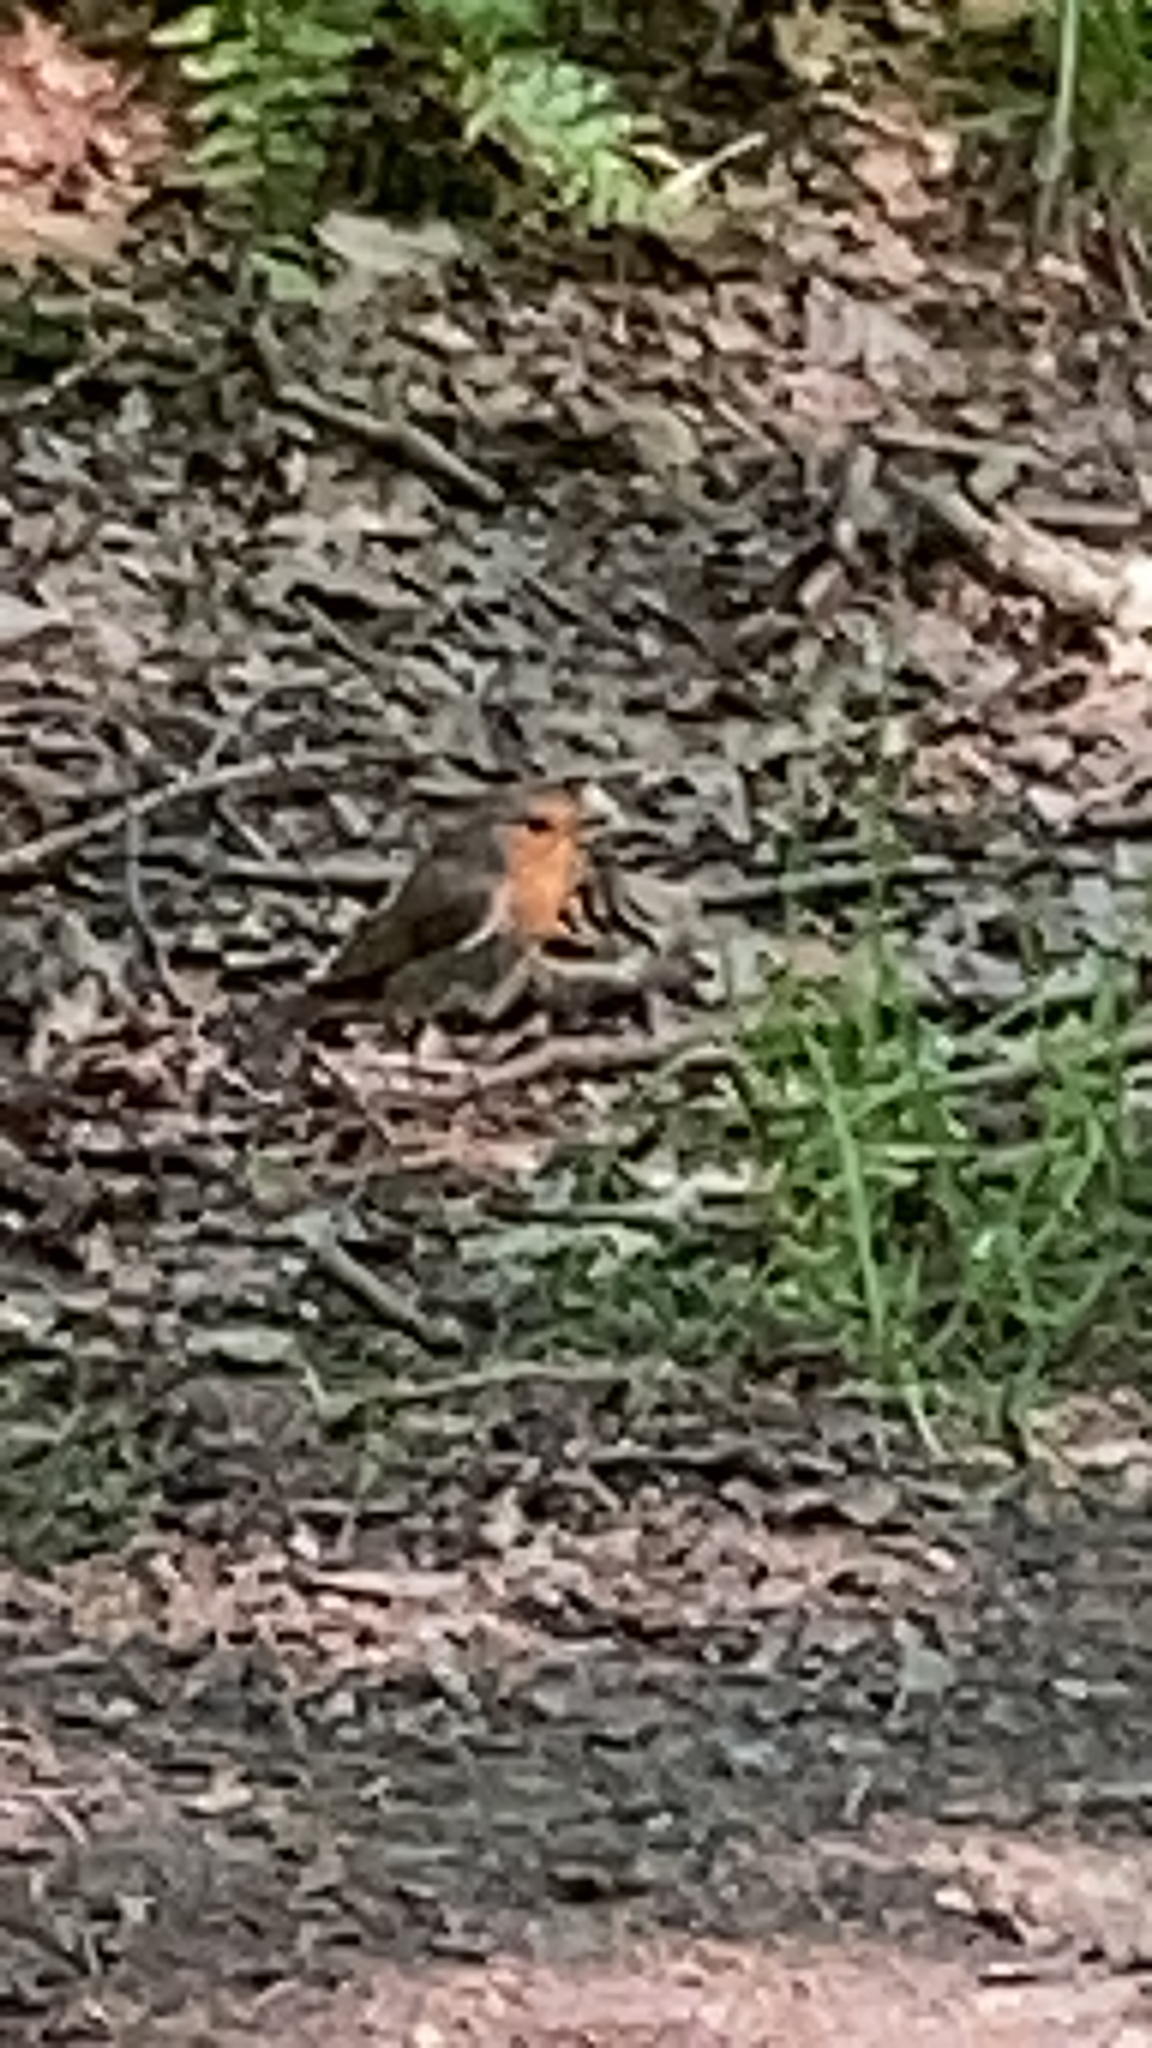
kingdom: Animalia
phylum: Chordata
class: Aves
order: Passeriformes
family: Muscicapidae
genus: Erithacus
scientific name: Erithacus rubecula
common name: European robin
